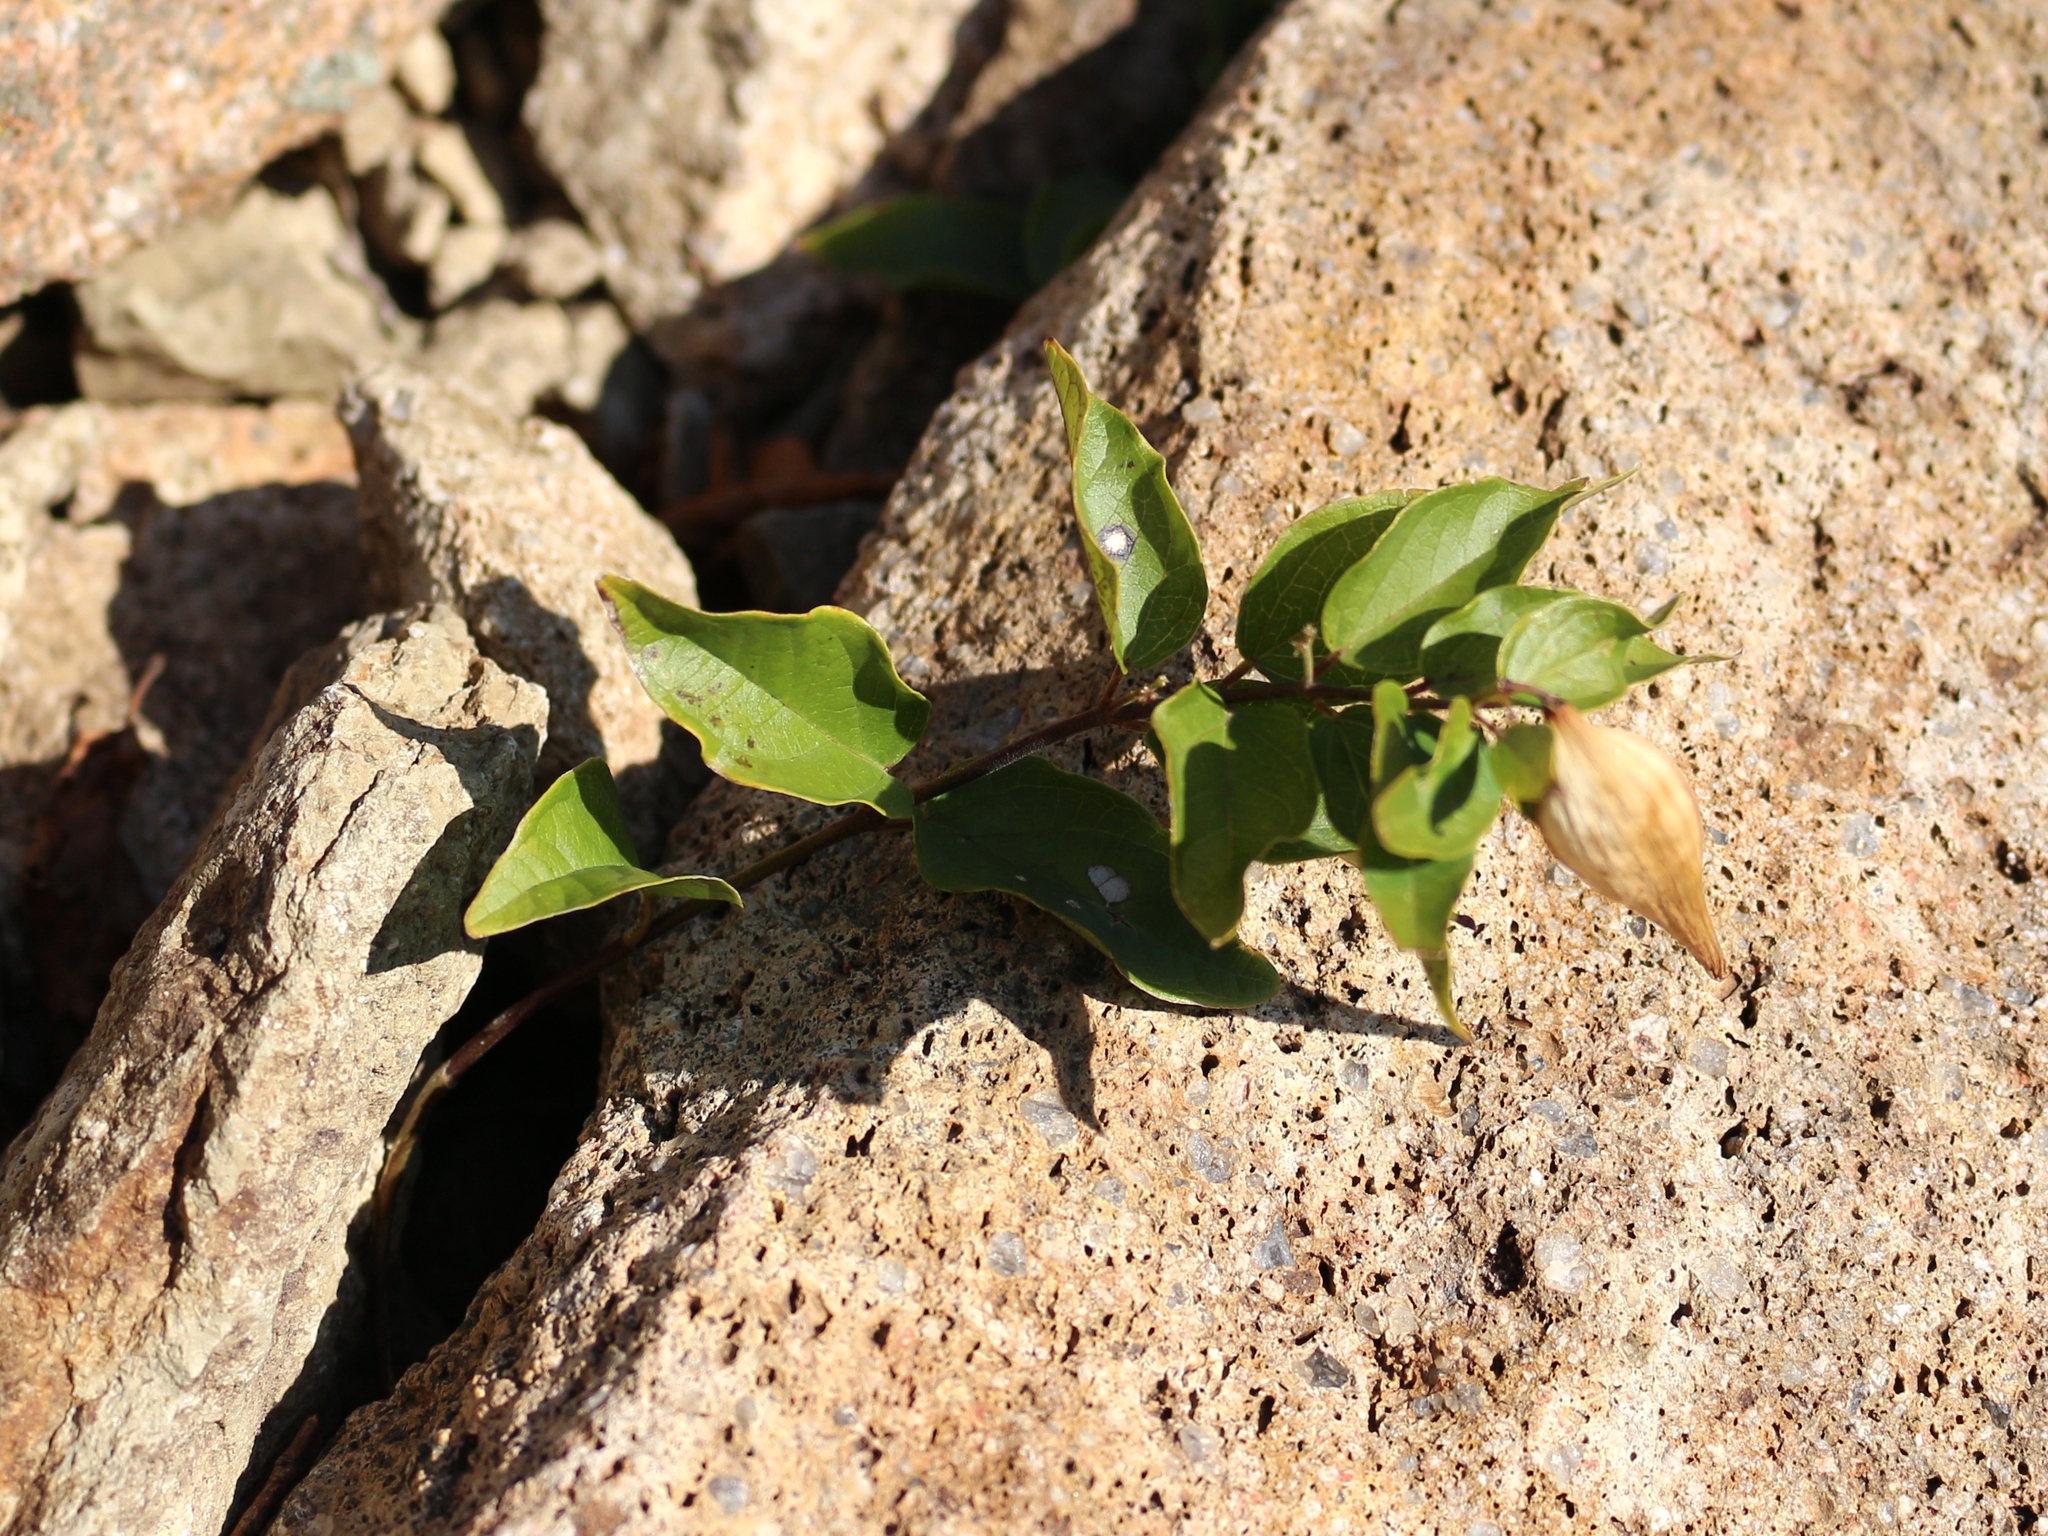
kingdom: Plantae
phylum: Tracheophyta
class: Magnoliopsida
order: Gentianales
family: Apocynaceae
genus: Vincetoxicum
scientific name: Vincetoxicum hirundinaria
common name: White swallowwort
